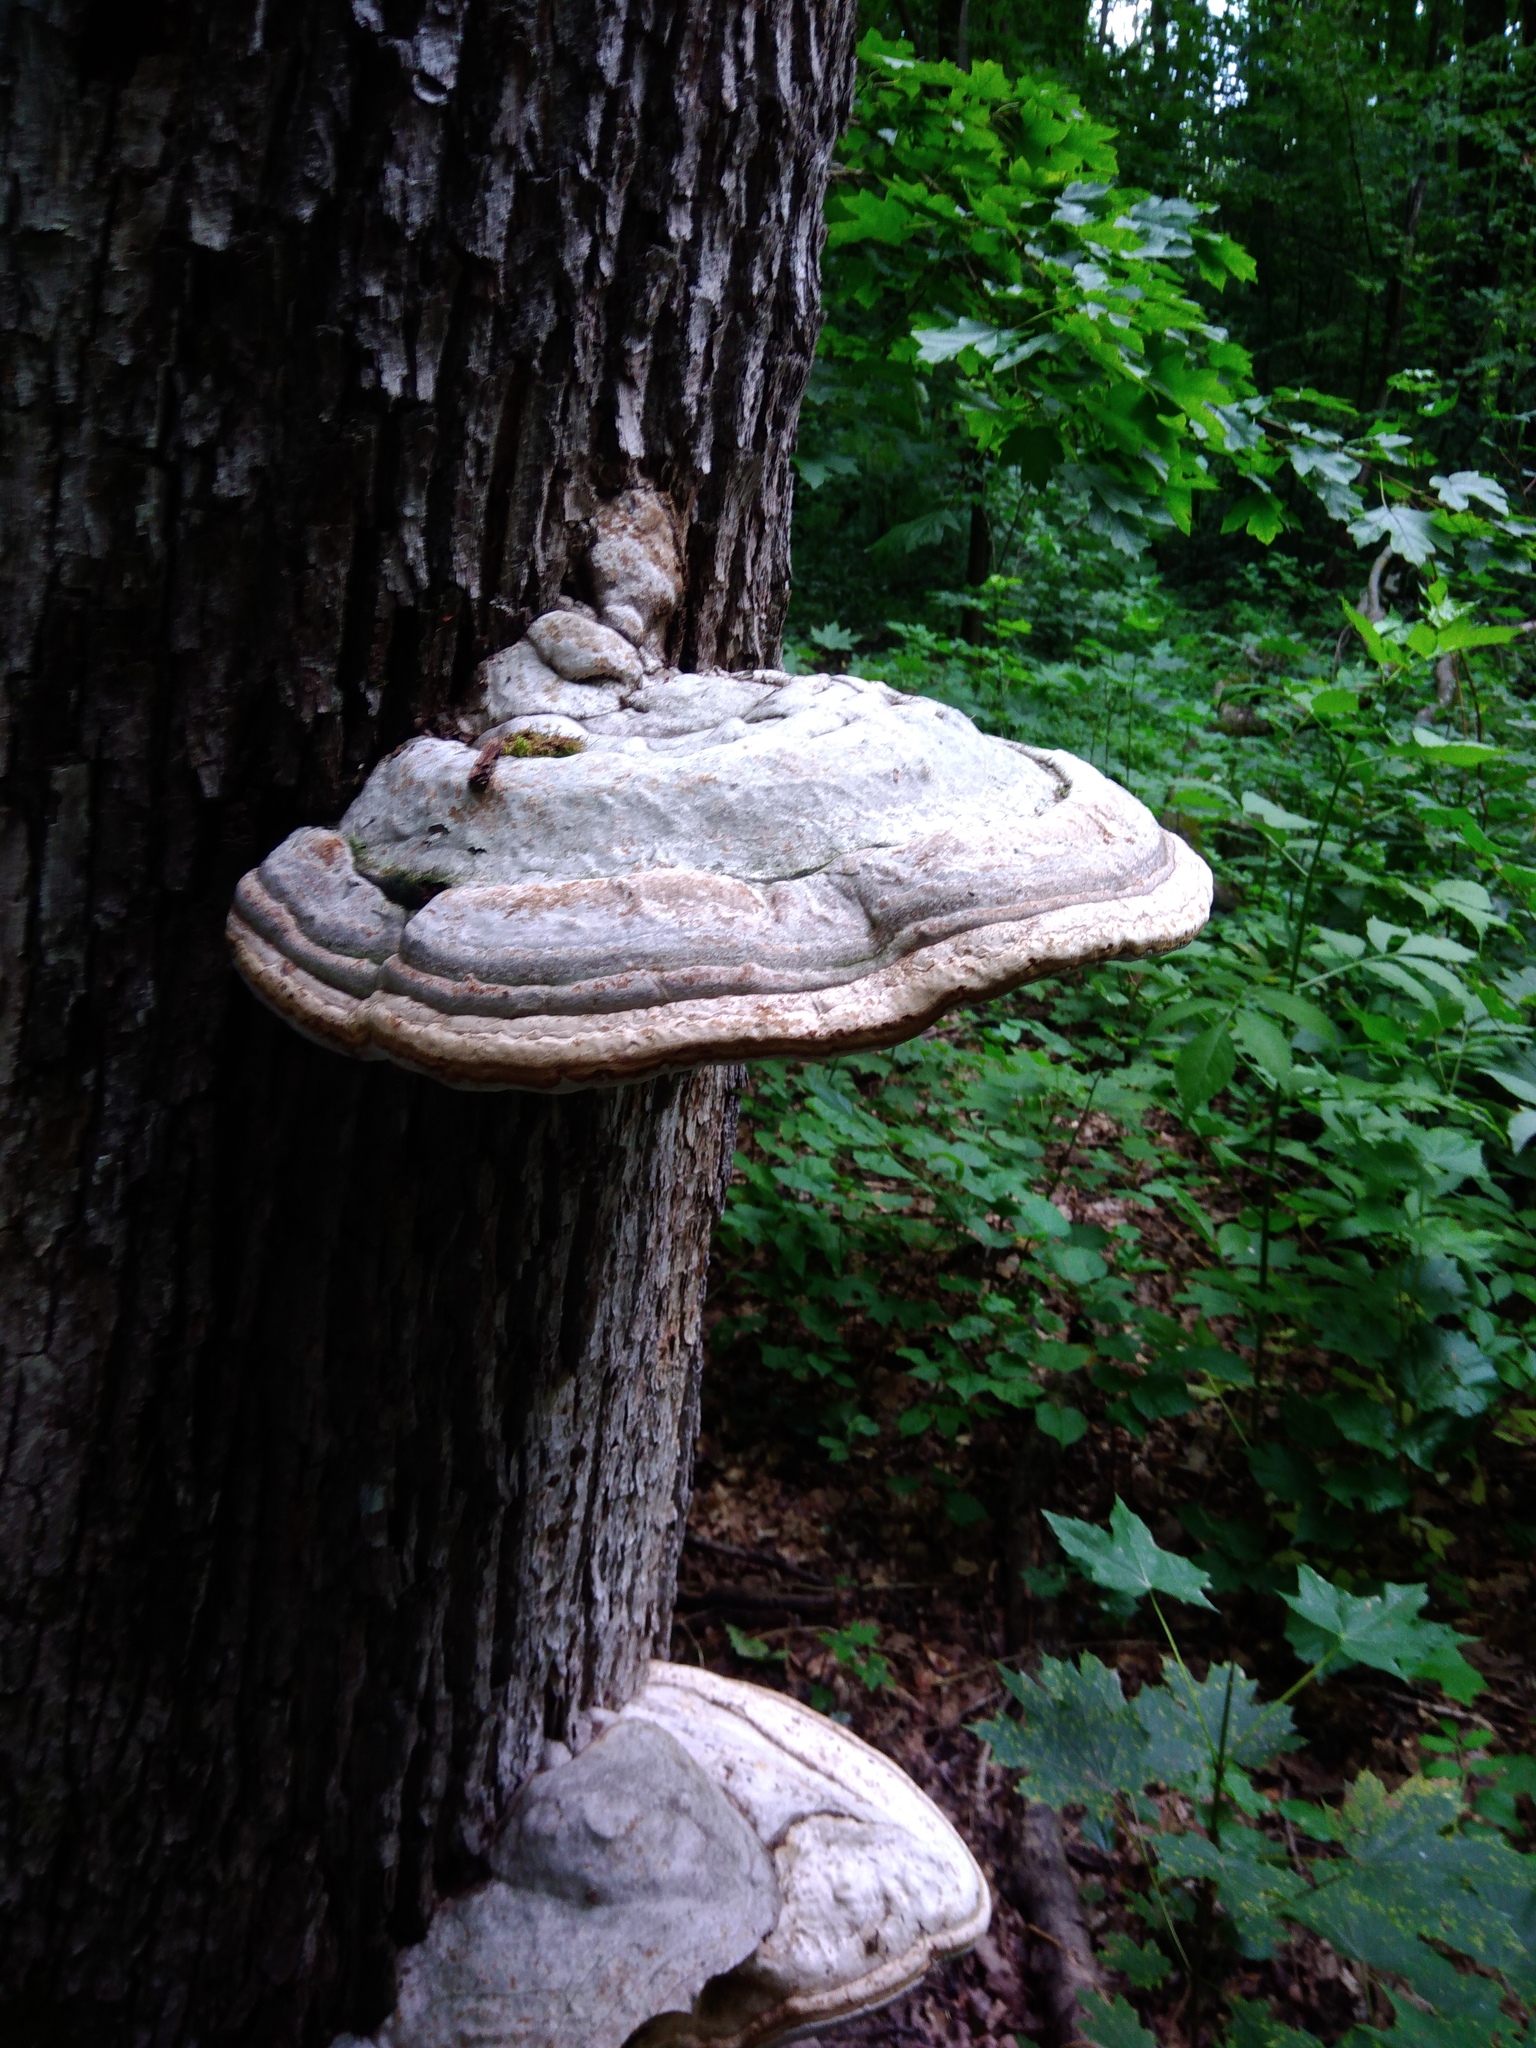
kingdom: Fungi
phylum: Basidiomycota
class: Agaricomycetes
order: Polyporales
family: Polyporaceae
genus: Fomes
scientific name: Fomes fomentarius
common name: Hoof fungus
